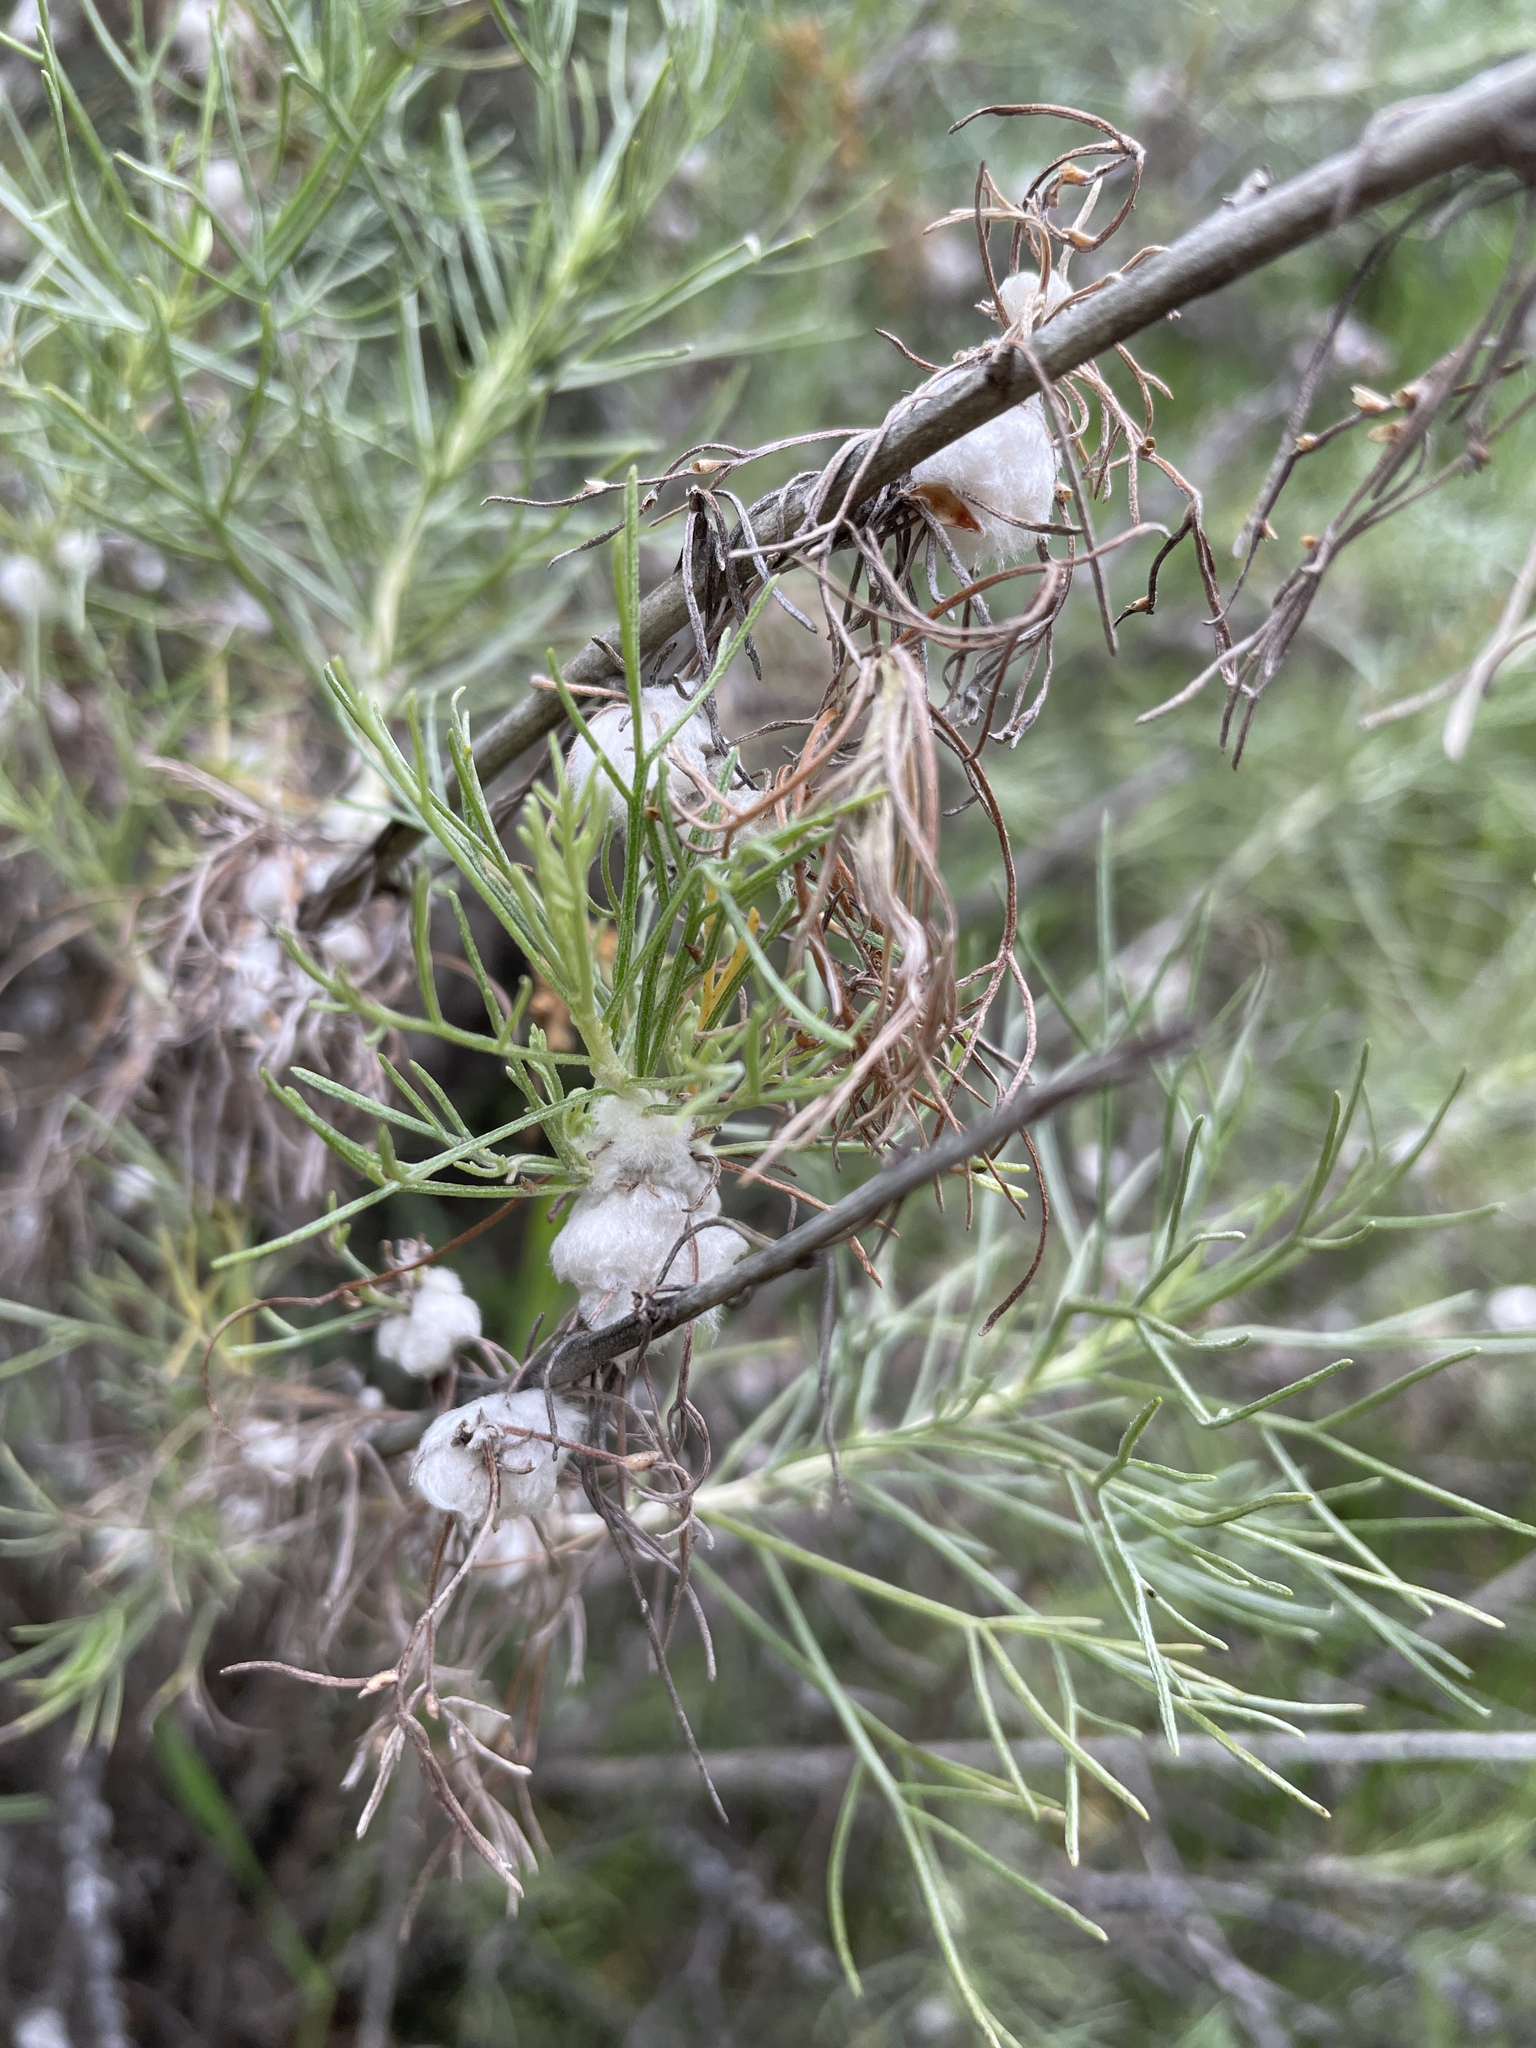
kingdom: Animalia
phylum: Arthropoda
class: Insecta
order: Diptera
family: Cecidomyiidae
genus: Rhopalomyia
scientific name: Rhopalomyia floccosa
